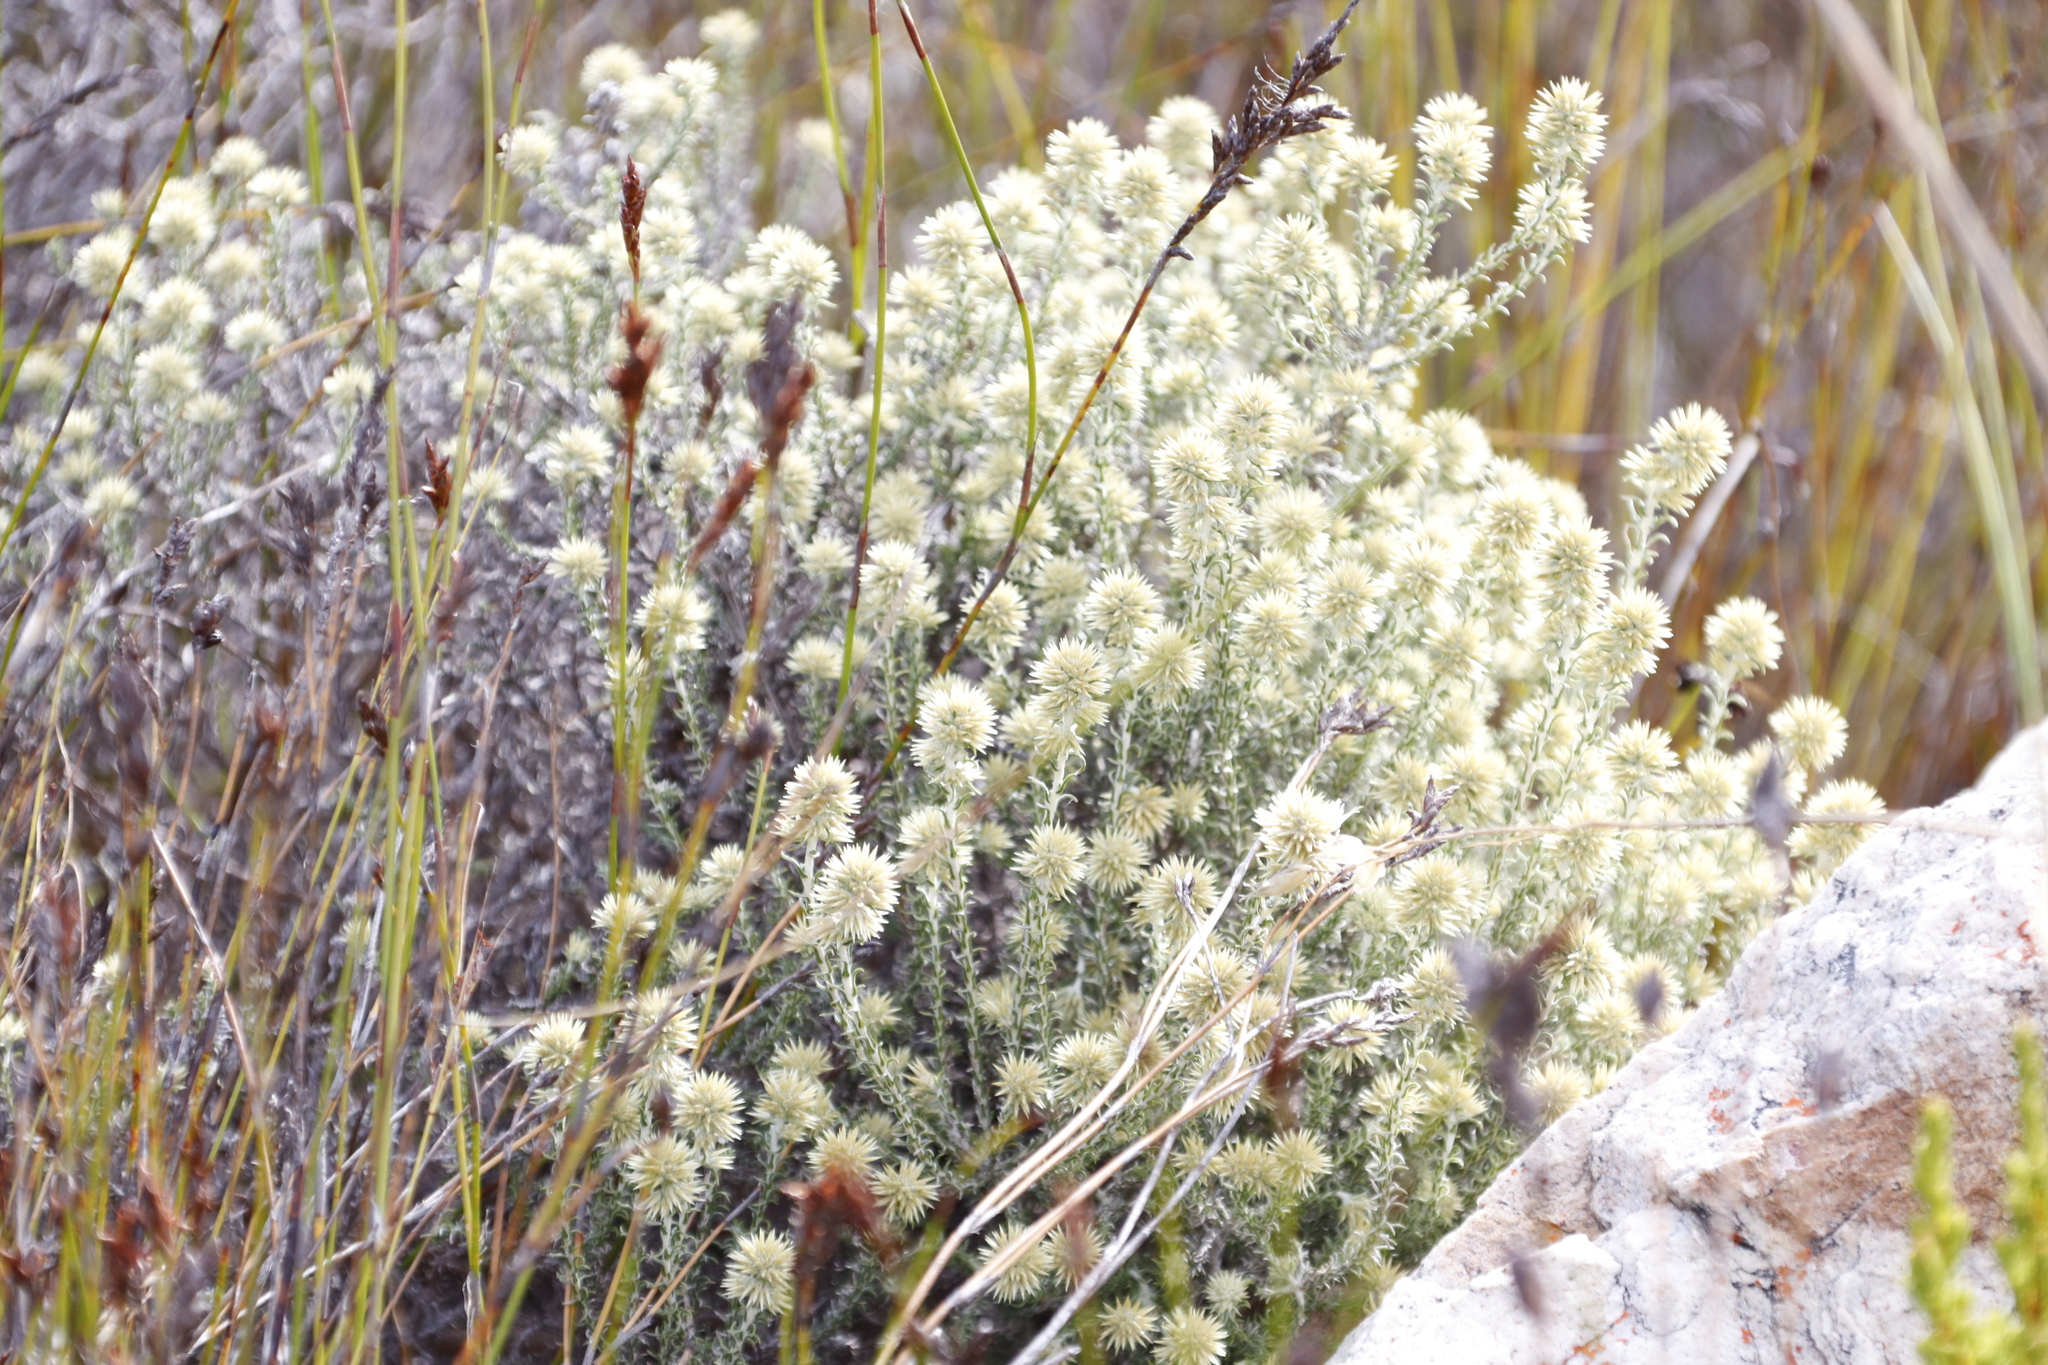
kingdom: Plantae
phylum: Tracheophyta
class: Magnoliopsida
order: Asterales
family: Asteraceae
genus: Seriphium
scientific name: Seriphium spirale
